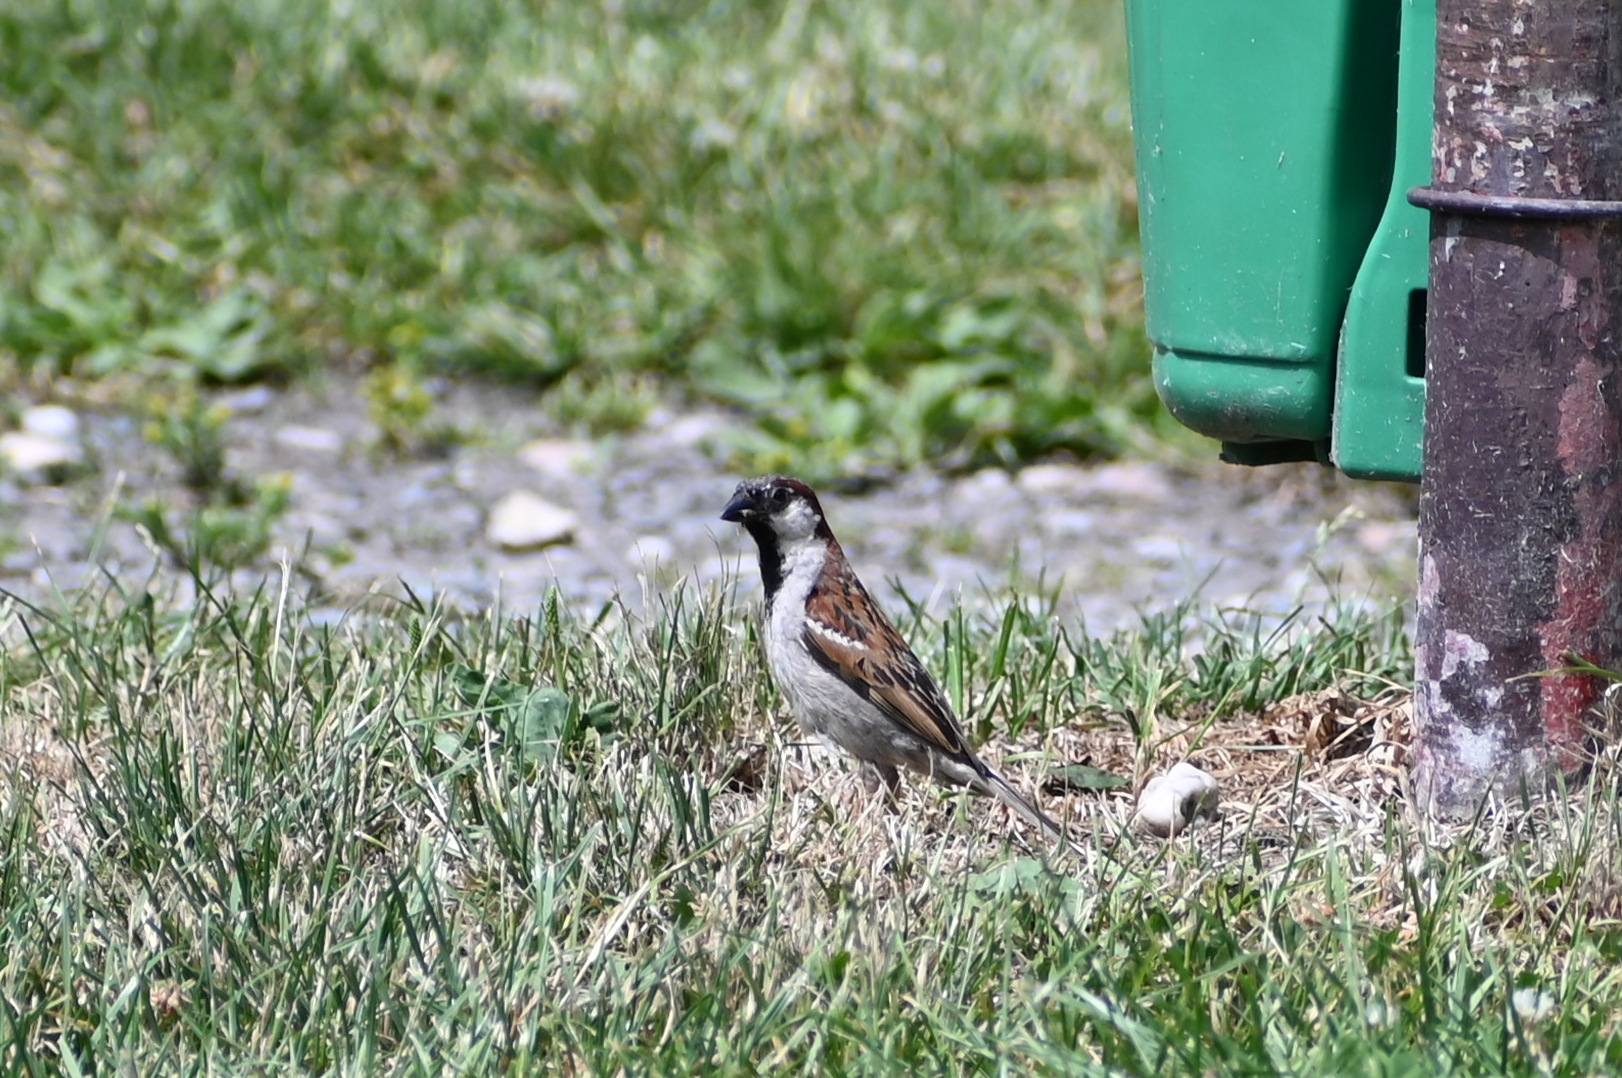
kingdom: Animalia
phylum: Chordata
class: Aves
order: Passeriformes
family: Passeridae
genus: Passer
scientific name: Passer domesticus
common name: House sparrow
